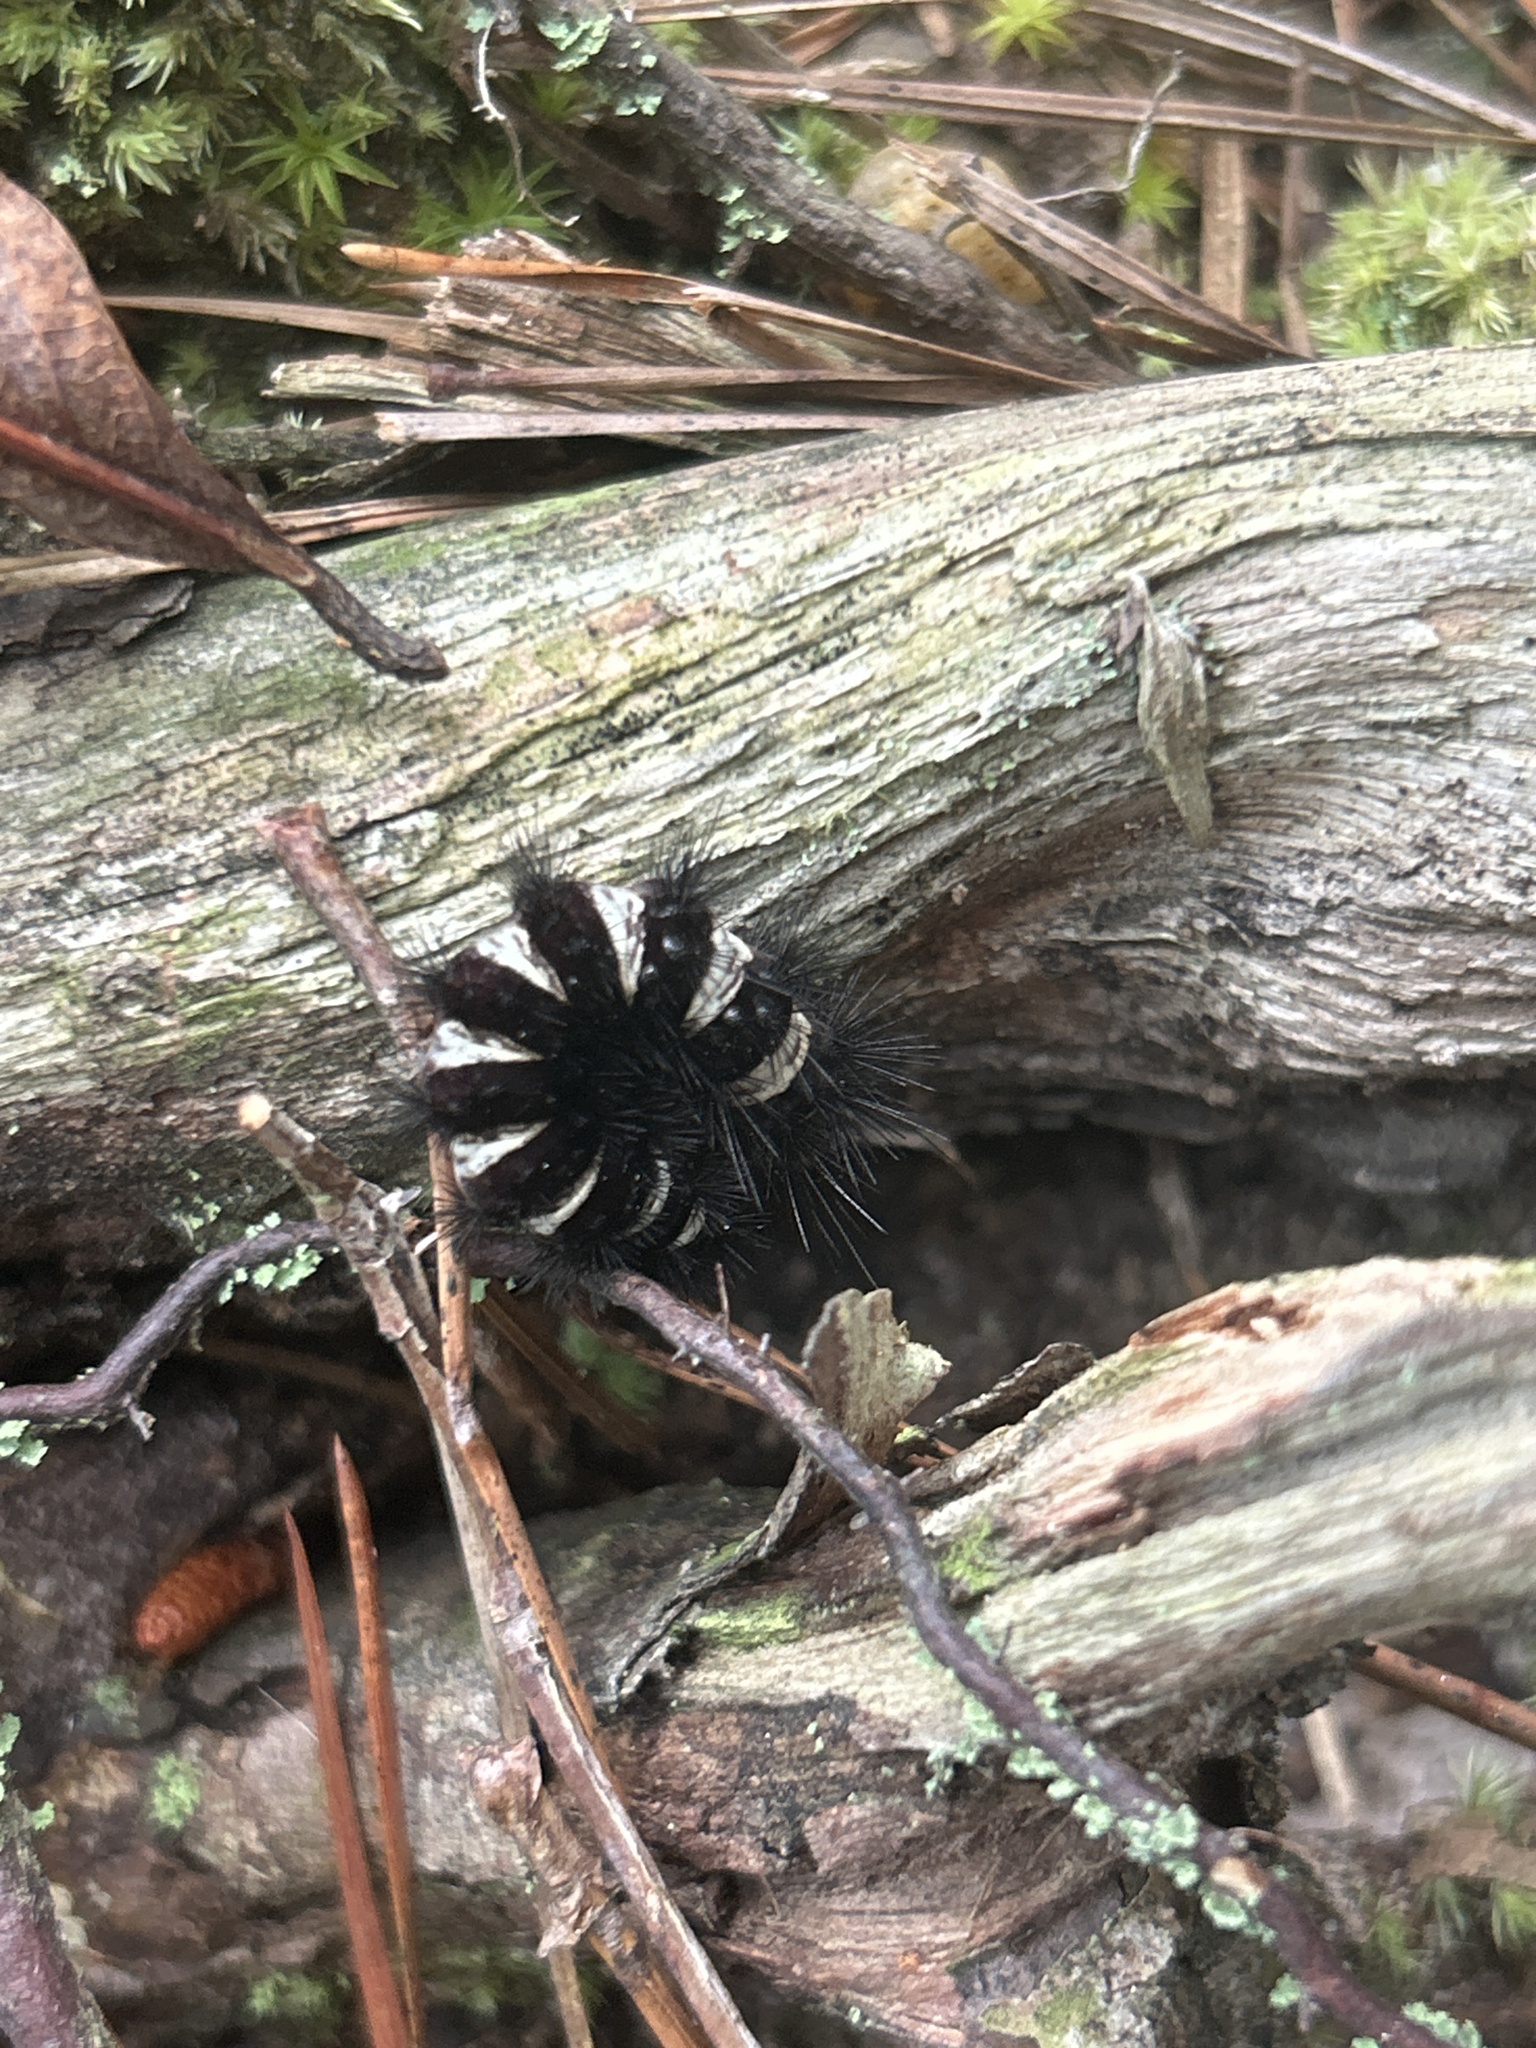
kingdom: Animalia
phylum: Arthropoda
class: Insecta
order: Lepidoptera
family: Erebidae
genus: Spilosoma
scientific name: Spilosoma congrua
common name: Agreeable tiger moth
